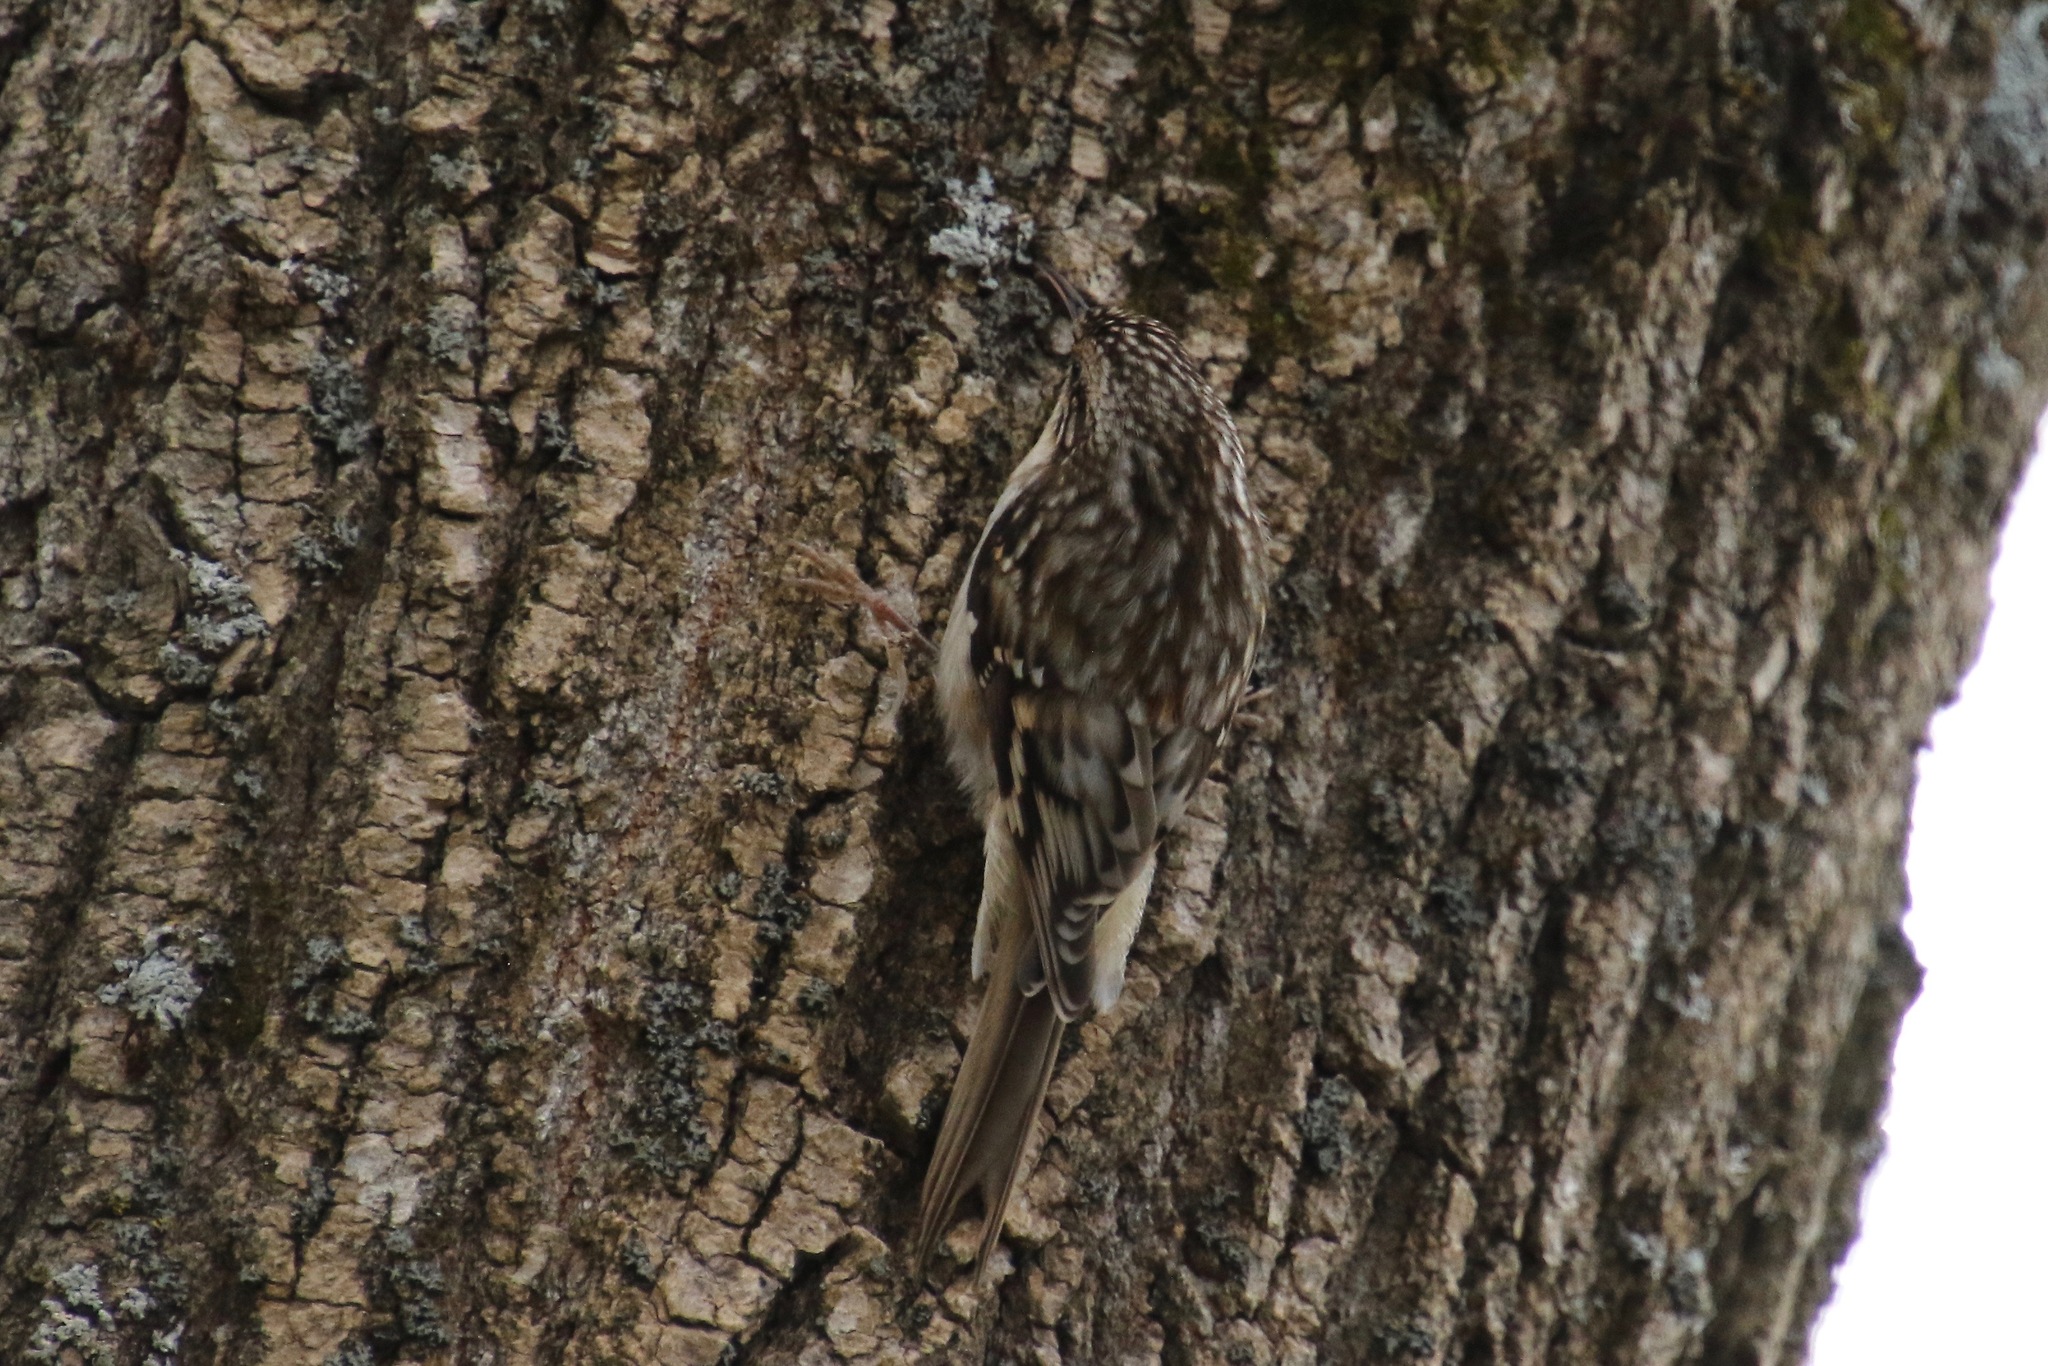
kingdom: Animalia
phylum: Chordata
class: Aves
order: Passeriformes
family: Certhiidae
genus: Certhia
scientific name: Certhia americana
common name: Brown creeper
